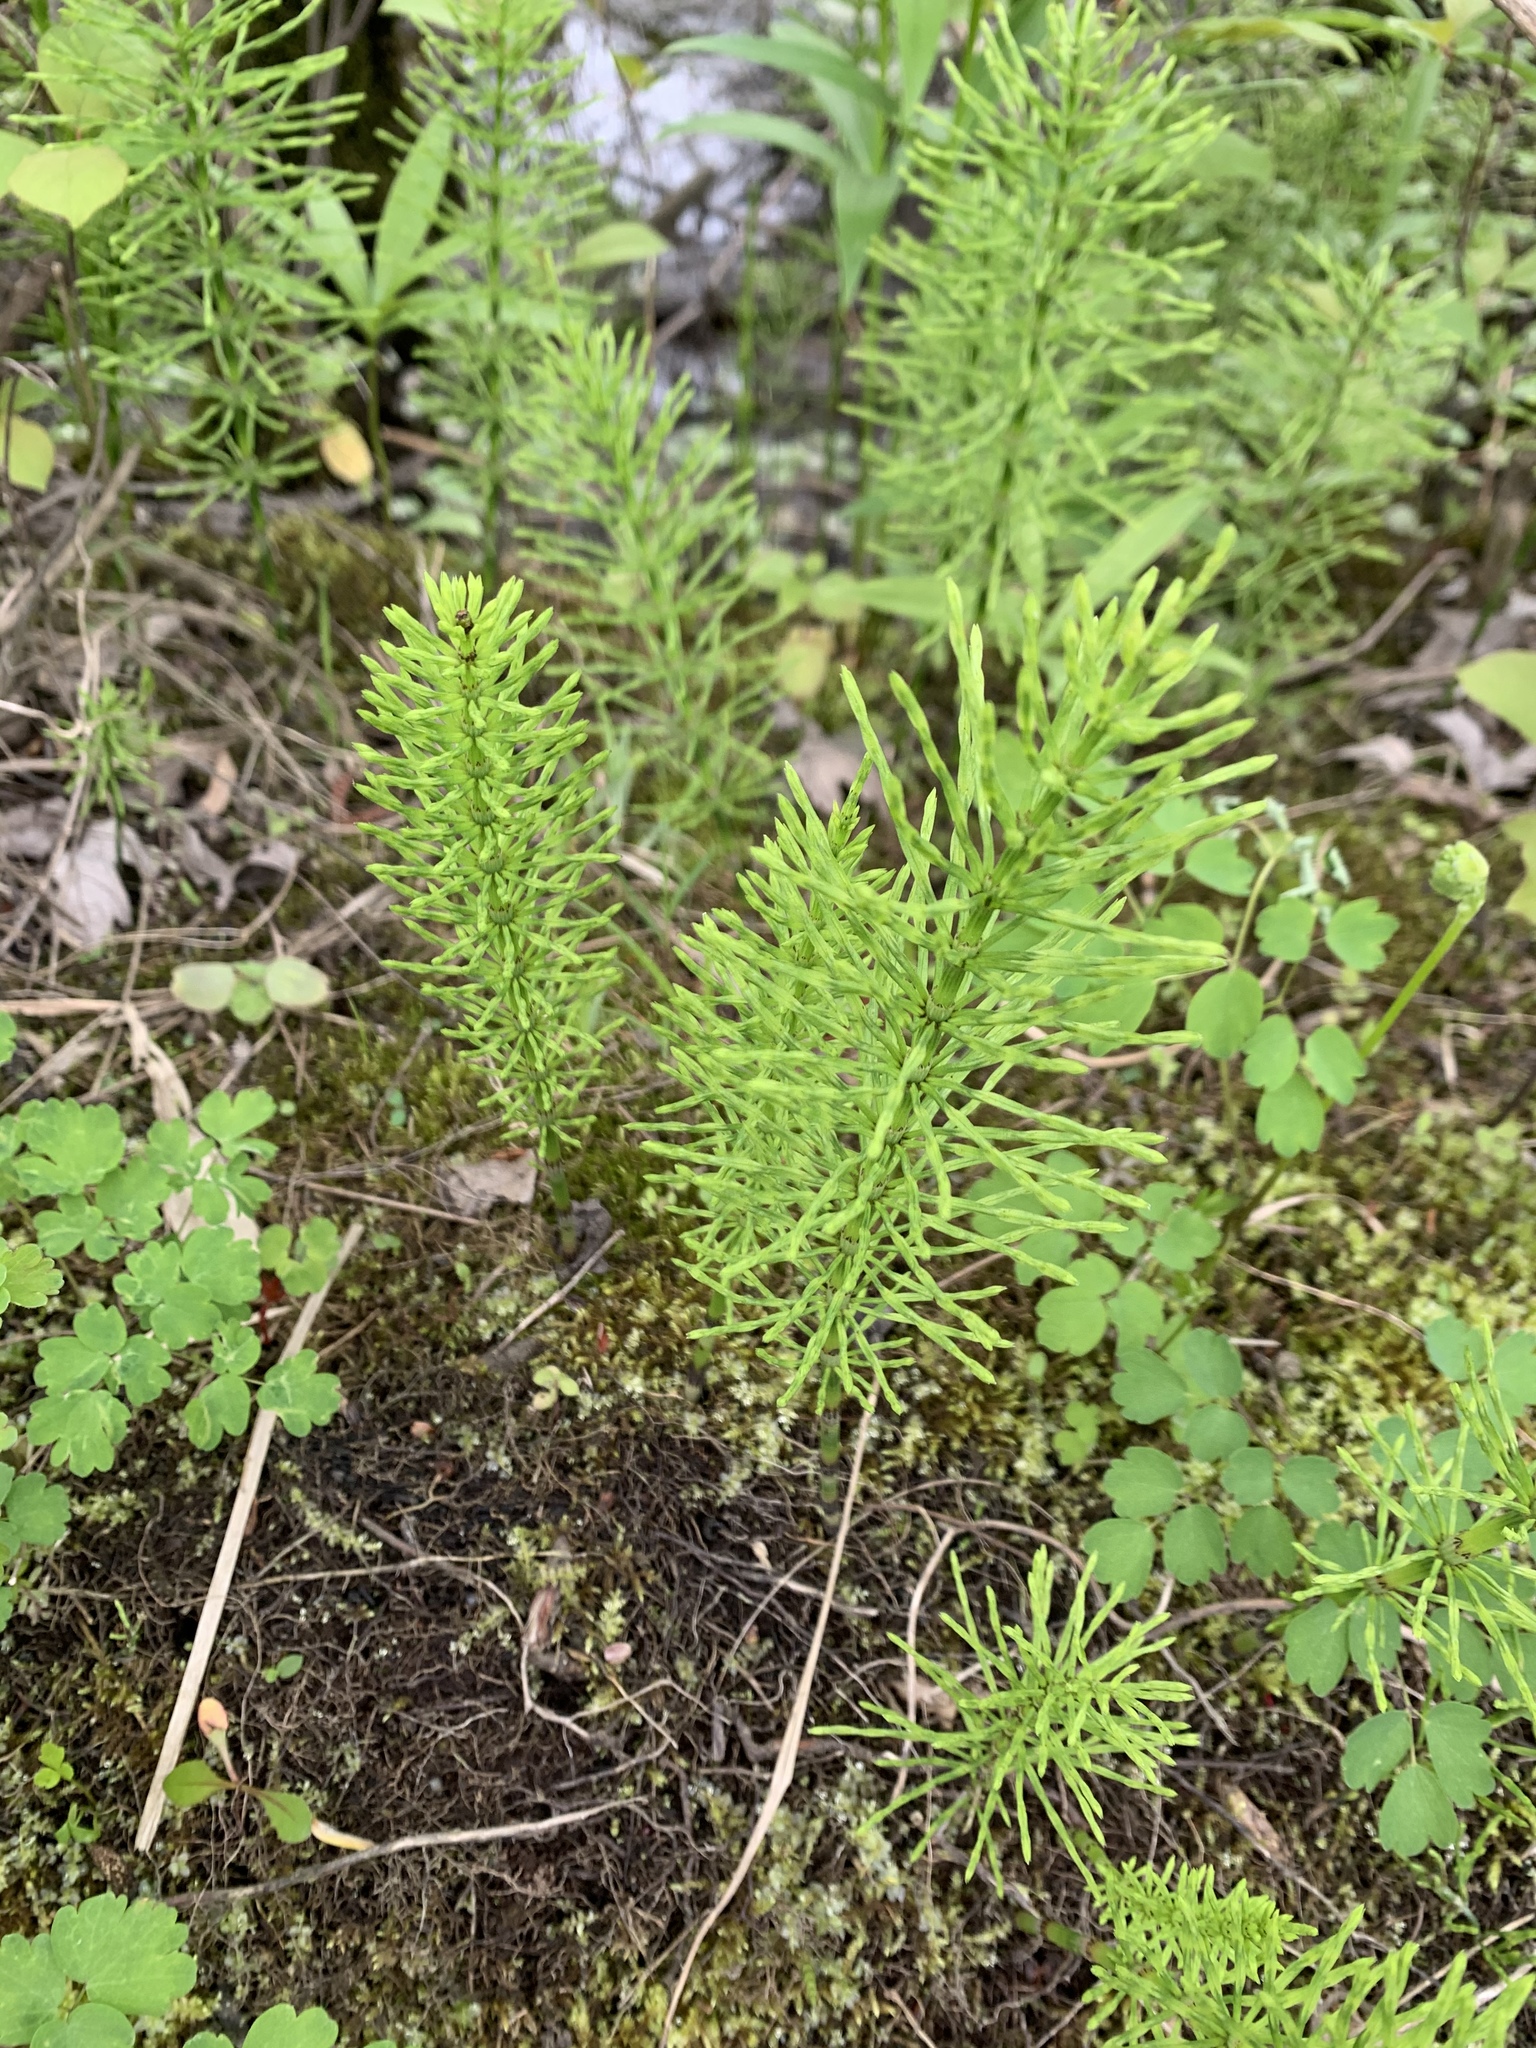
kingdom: Plantae
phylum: Tracheophyta
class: Polypodiopsida
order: Equisetales
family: Equisetaceae
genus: Equisetum
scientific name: Equisetum arvense
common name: Field horsetail
